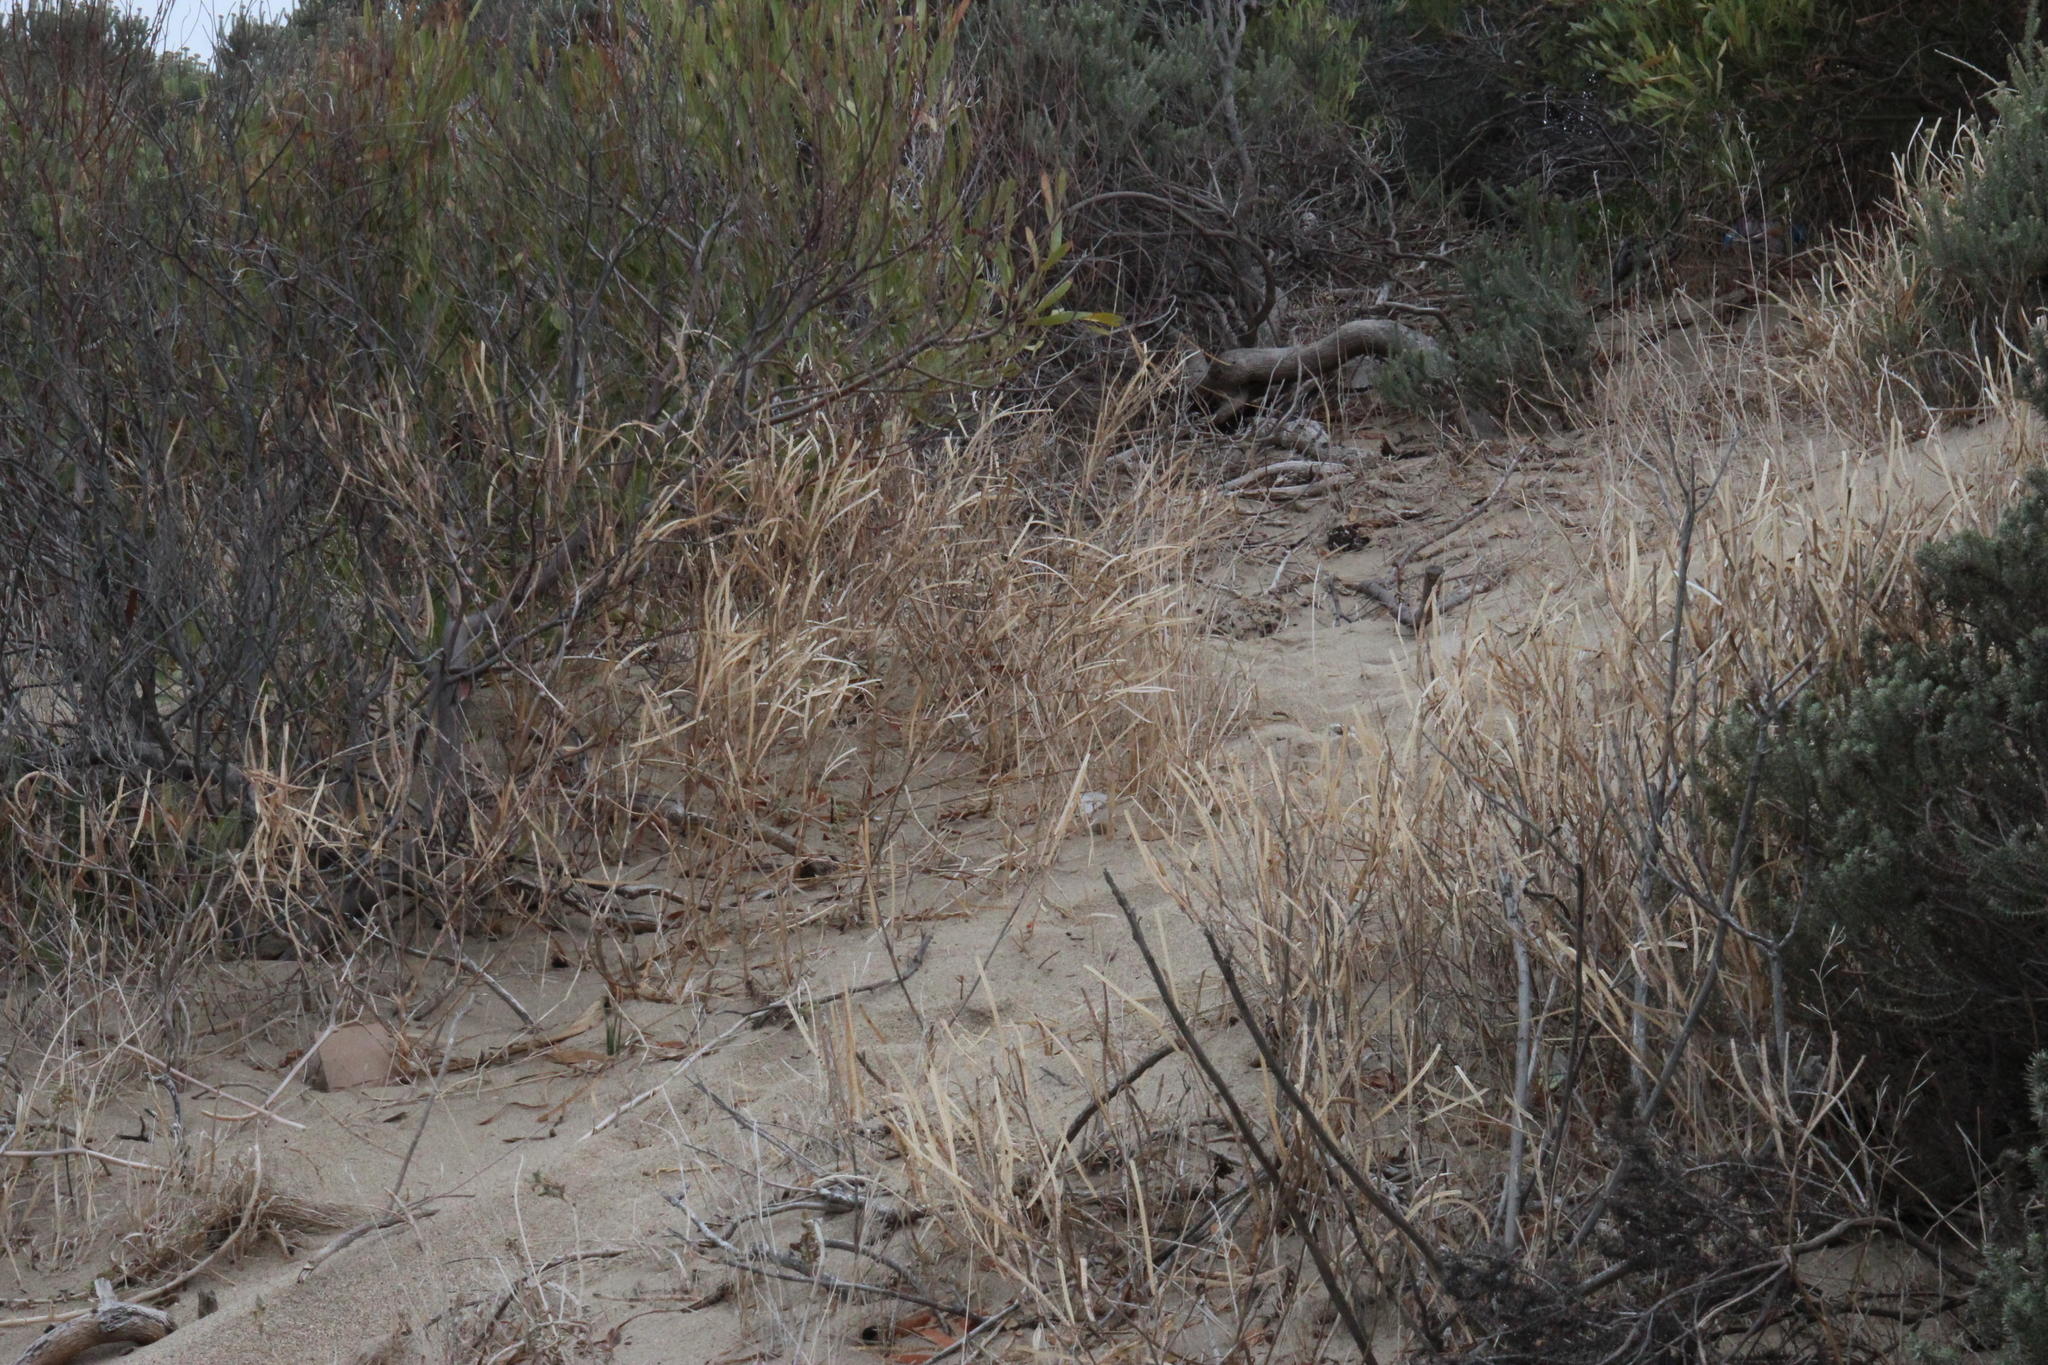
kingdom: Plantae
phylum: Tracheophyta
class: Magnoliopsida
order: Brassicales
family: Brassicaceae
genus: Matthiola
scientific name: Matthiola incana
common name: Hoary stock
